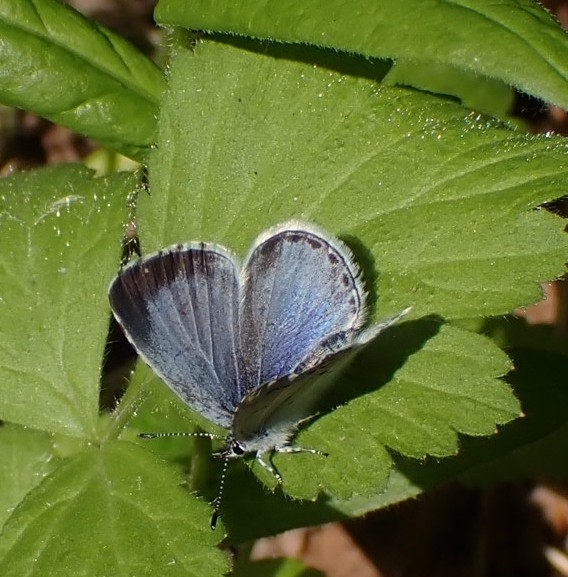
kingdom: Animalia
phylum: Arthropoda
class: Insecta
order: Lepidoptera
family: Lycaenidae
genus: Celastrina
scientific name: Celastrina argiolus
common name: Holly blue
